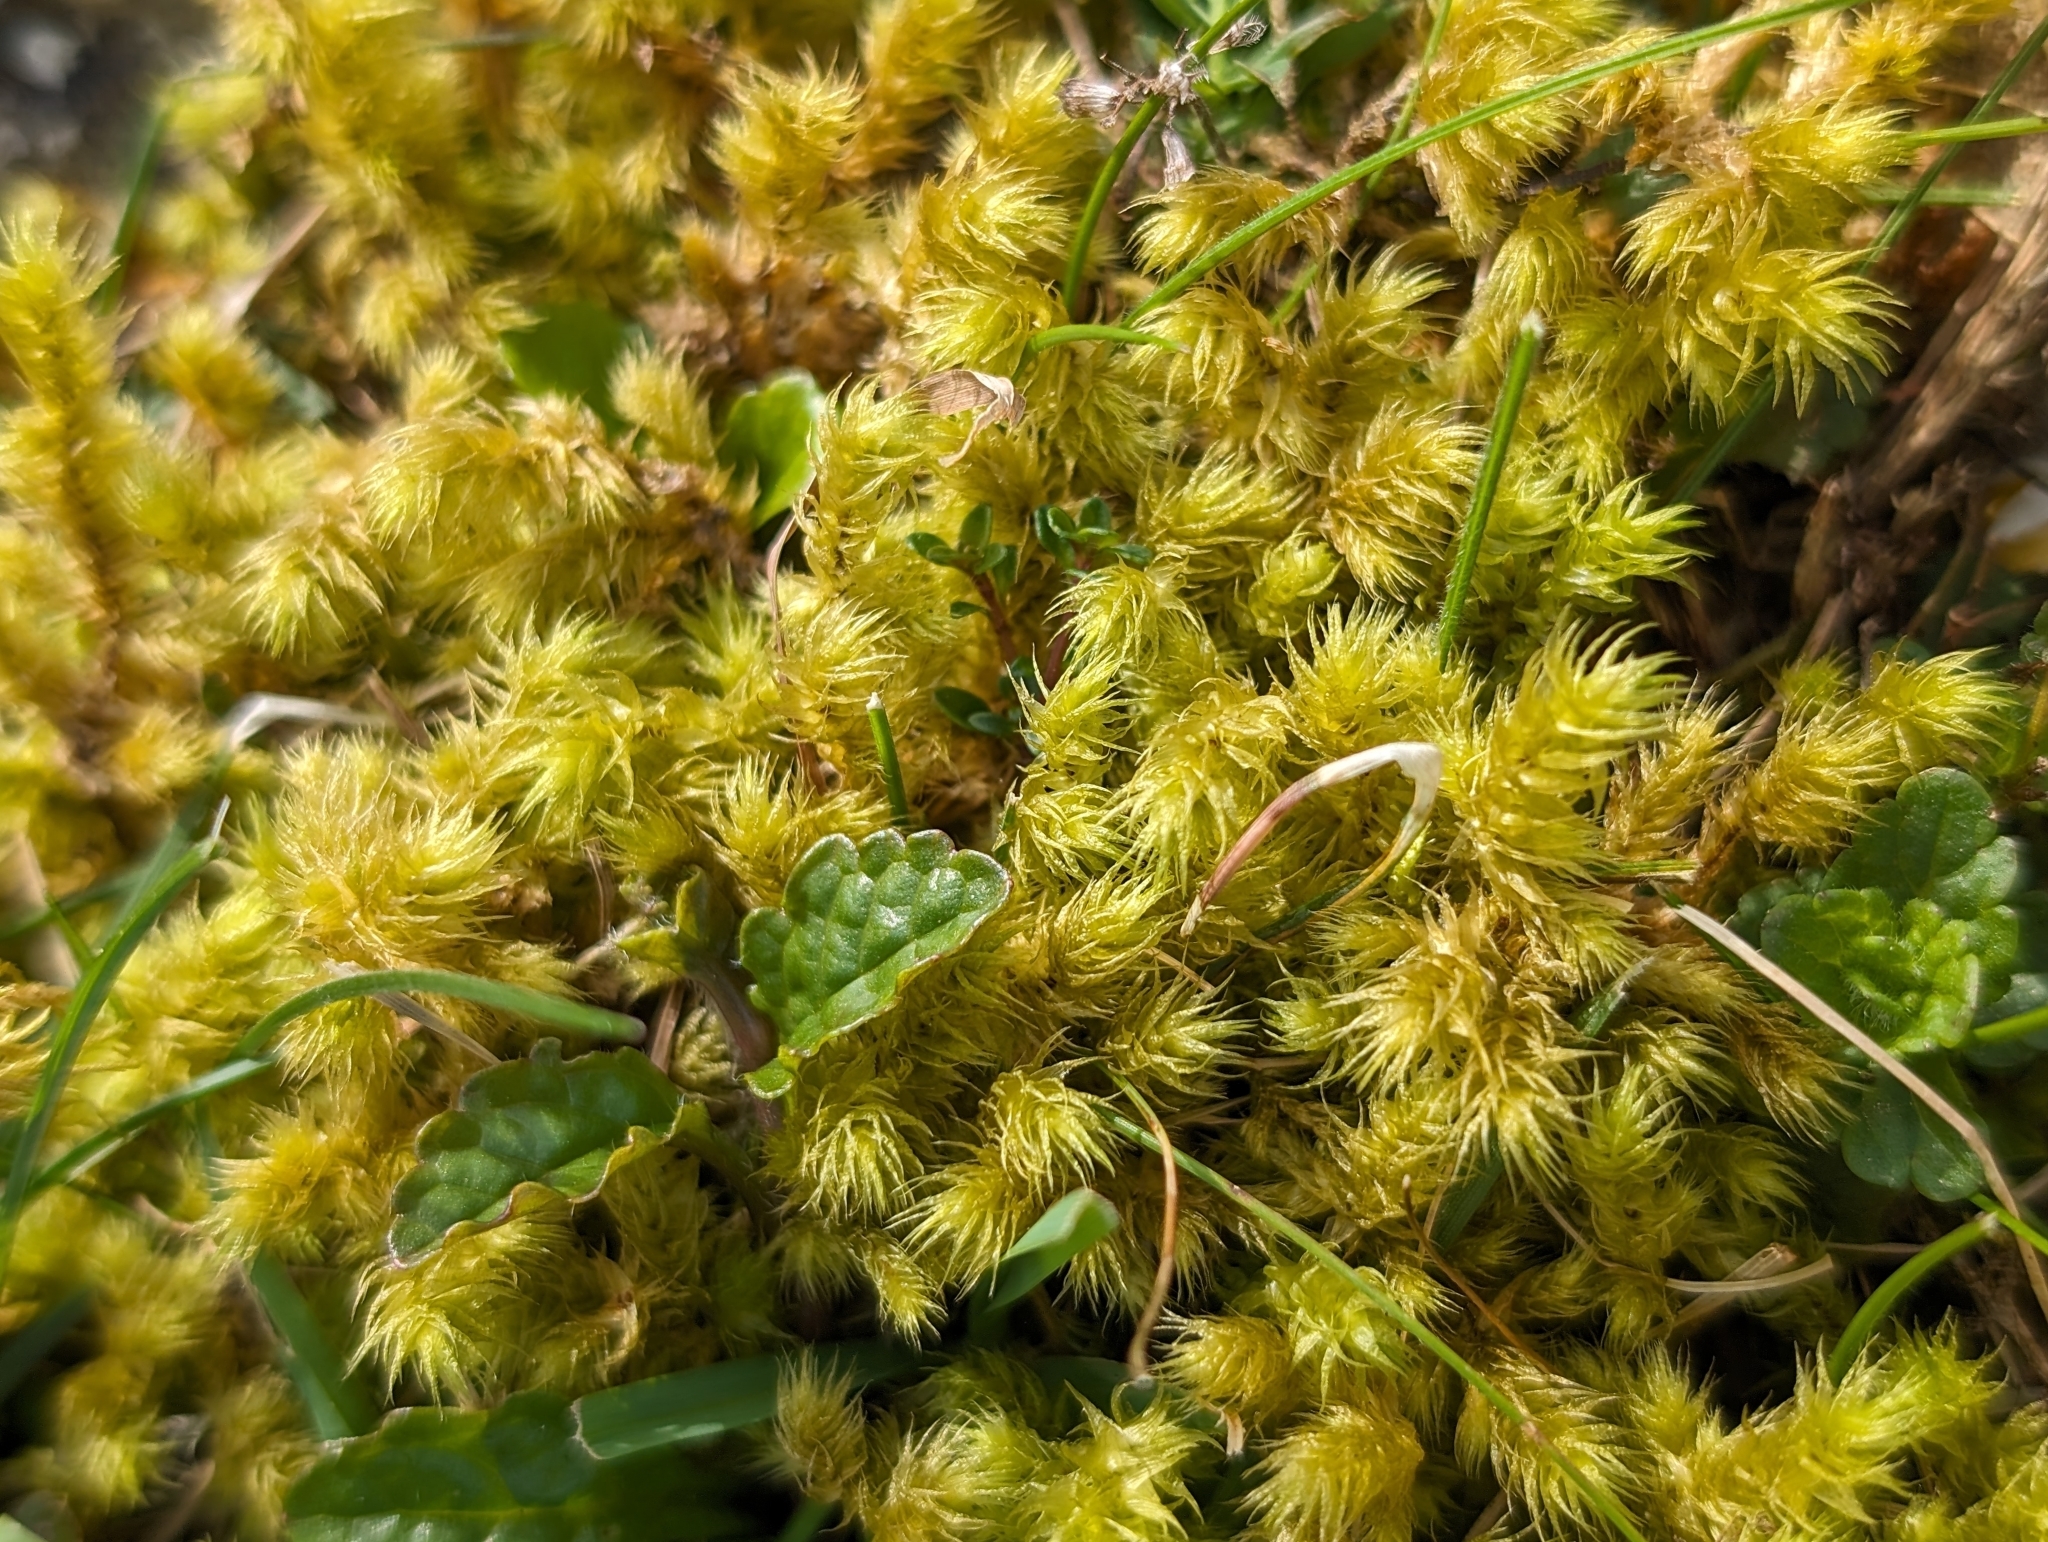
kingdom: Plantae
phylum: Bryophyta
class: Bryopsida
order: Hypnales
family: Hylocomiaceae
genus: Hylocomiadelphus
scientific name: Hylocomiadelphus triquetrus
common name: Rough goose neck moss
